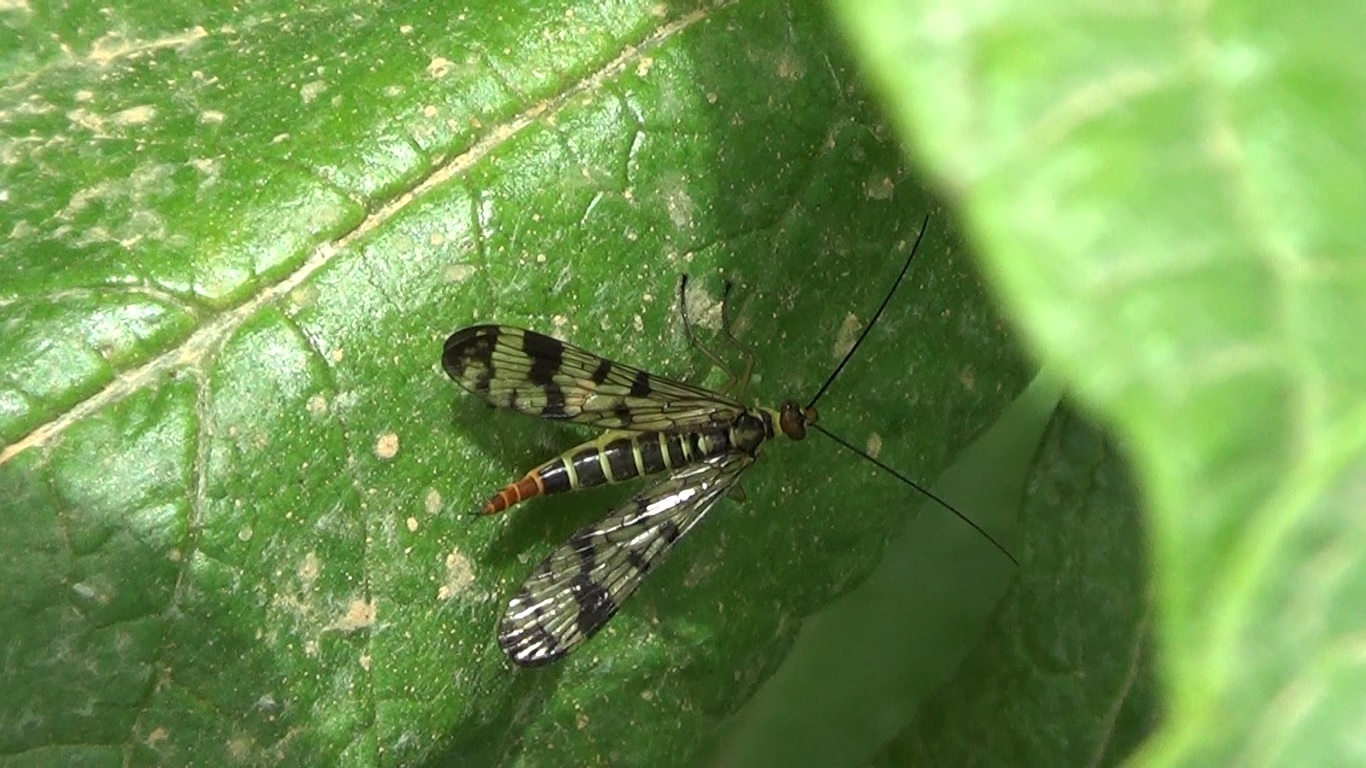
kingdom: Animalia
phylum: Arthropoda
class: Insecta
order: Mecoptera
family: Panorpidae
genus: Panorpa
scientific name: Panorpa communis
